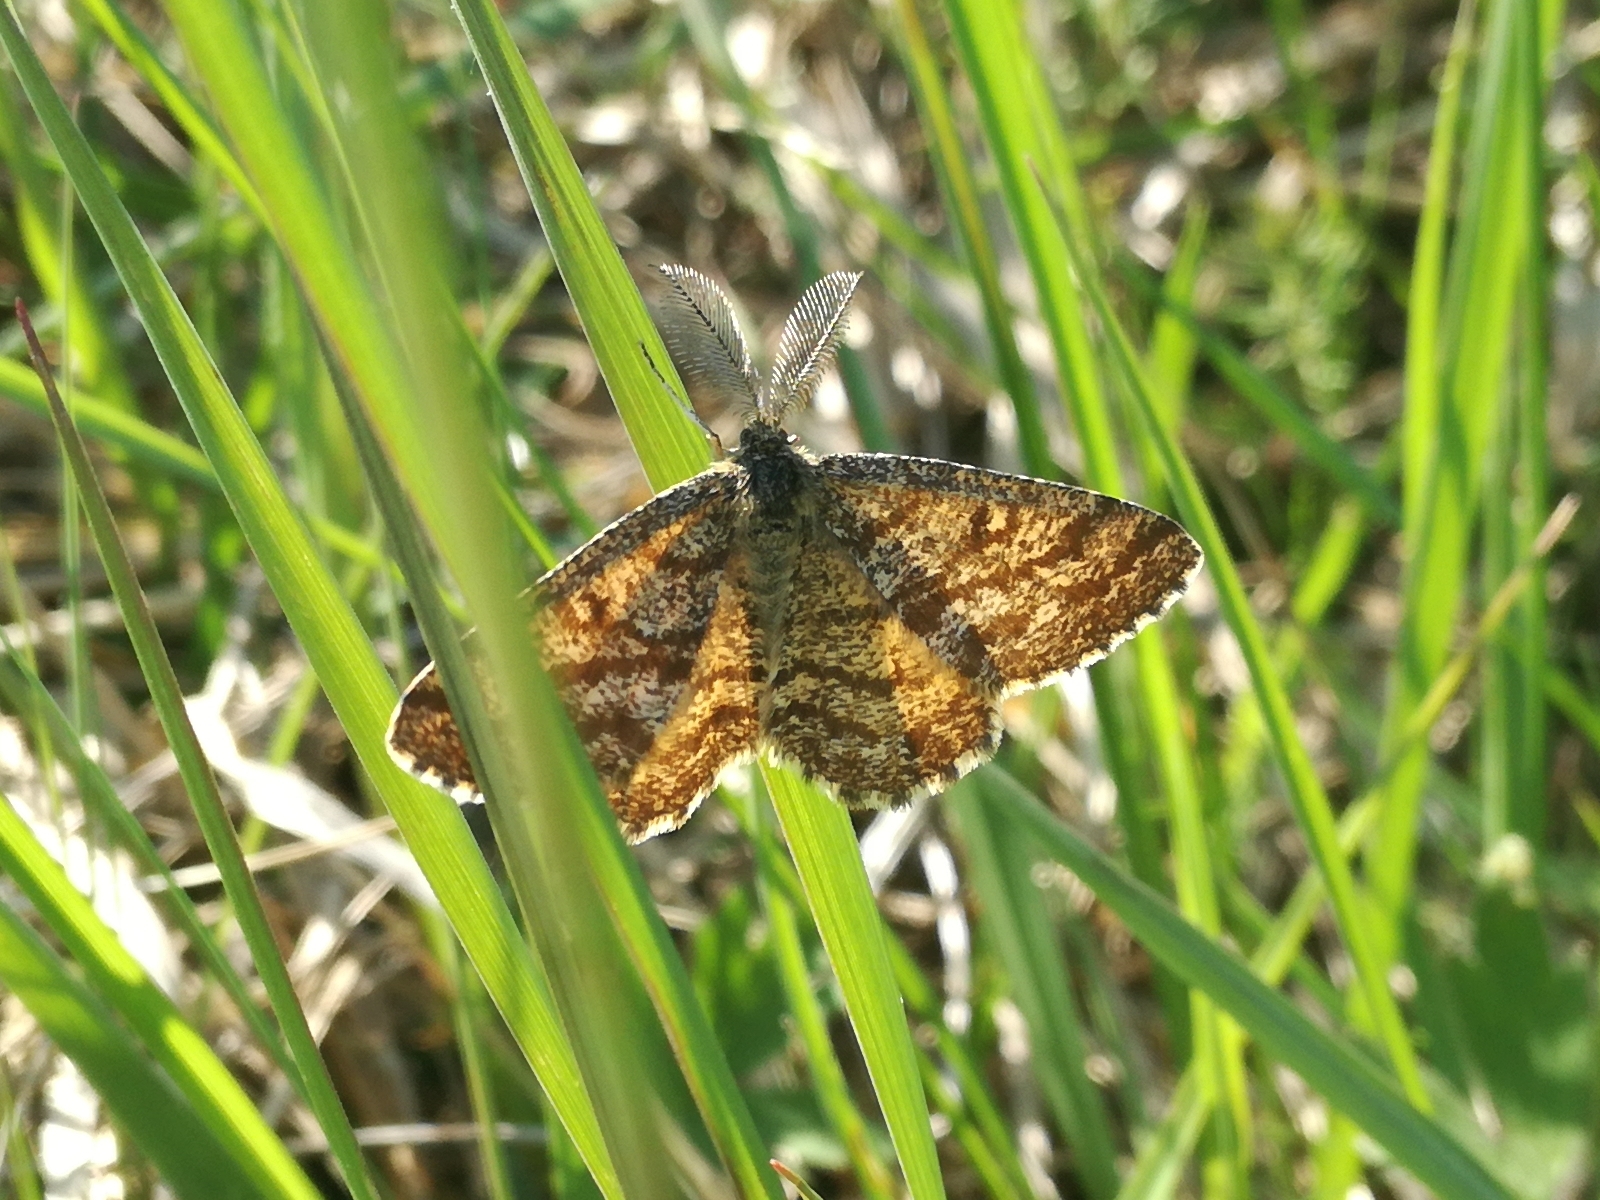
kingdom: Animalia
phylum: Arthropoda
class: Insecta
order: Lepidoptera
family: Geometridae
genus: Ematurga
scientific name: Ematurga atomaria
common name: Common heath
